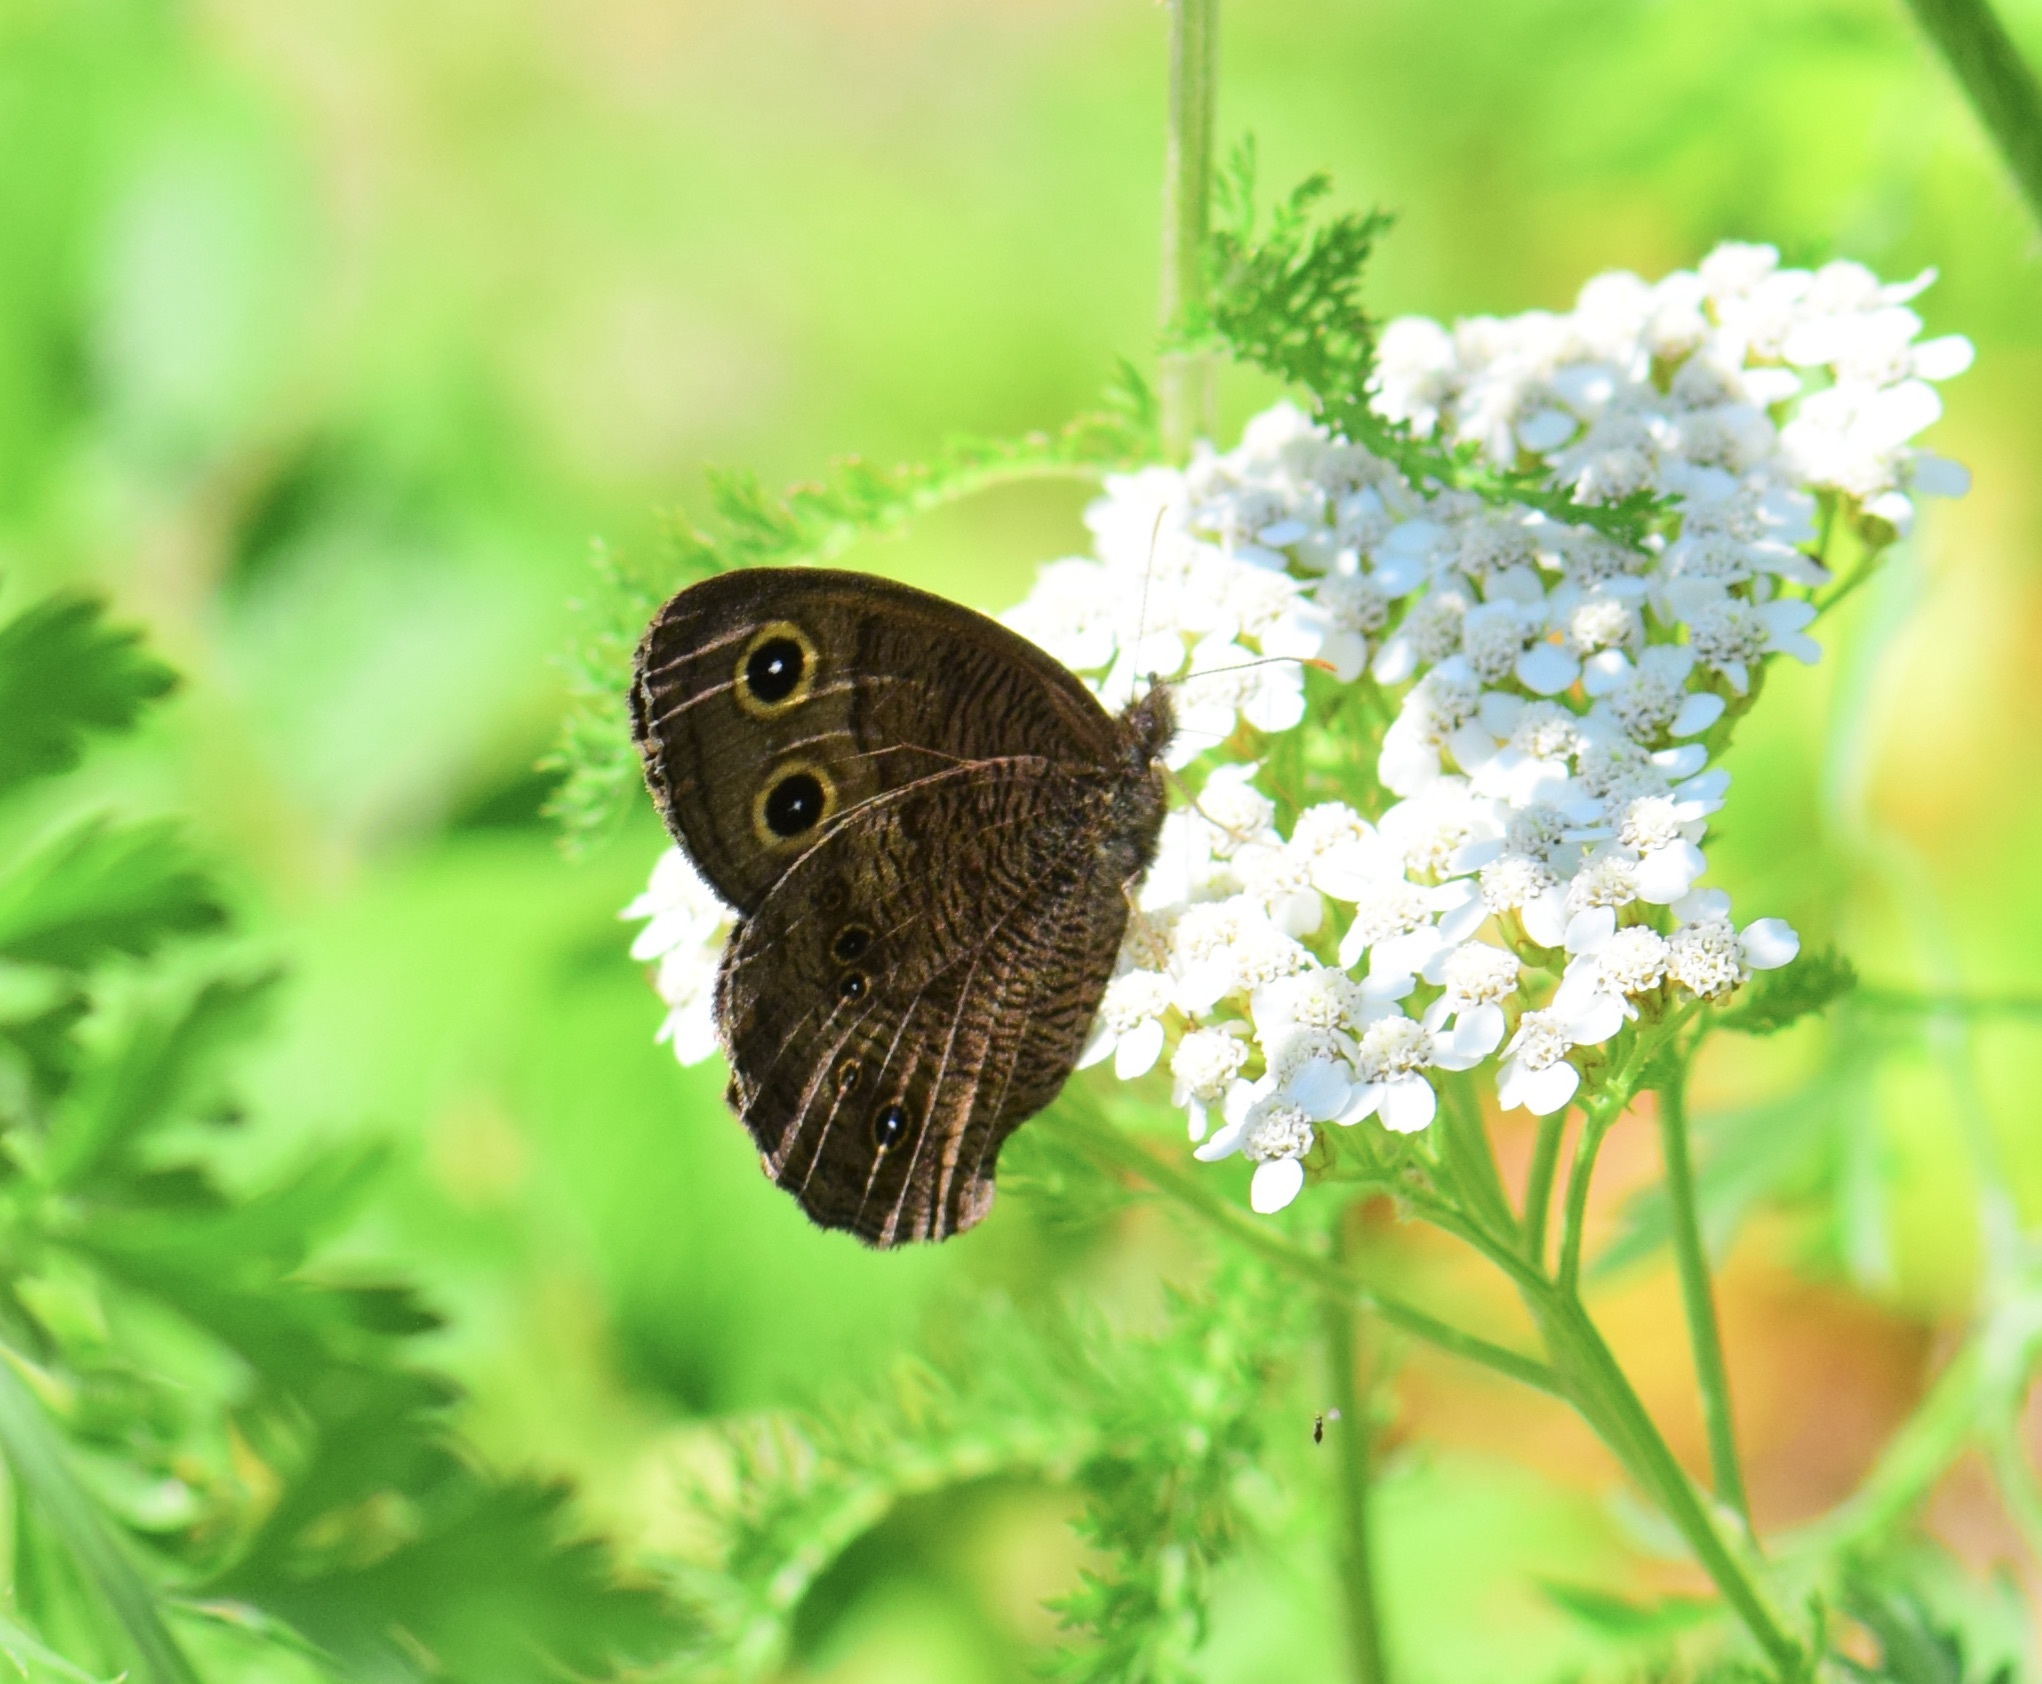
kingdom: Animalia
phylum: Arthropoda
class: Insecta
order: Lepidoptera
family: Nymphalidae
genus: Cercyonis
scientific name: Cercyonis pegala
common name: Common wood-nymph
